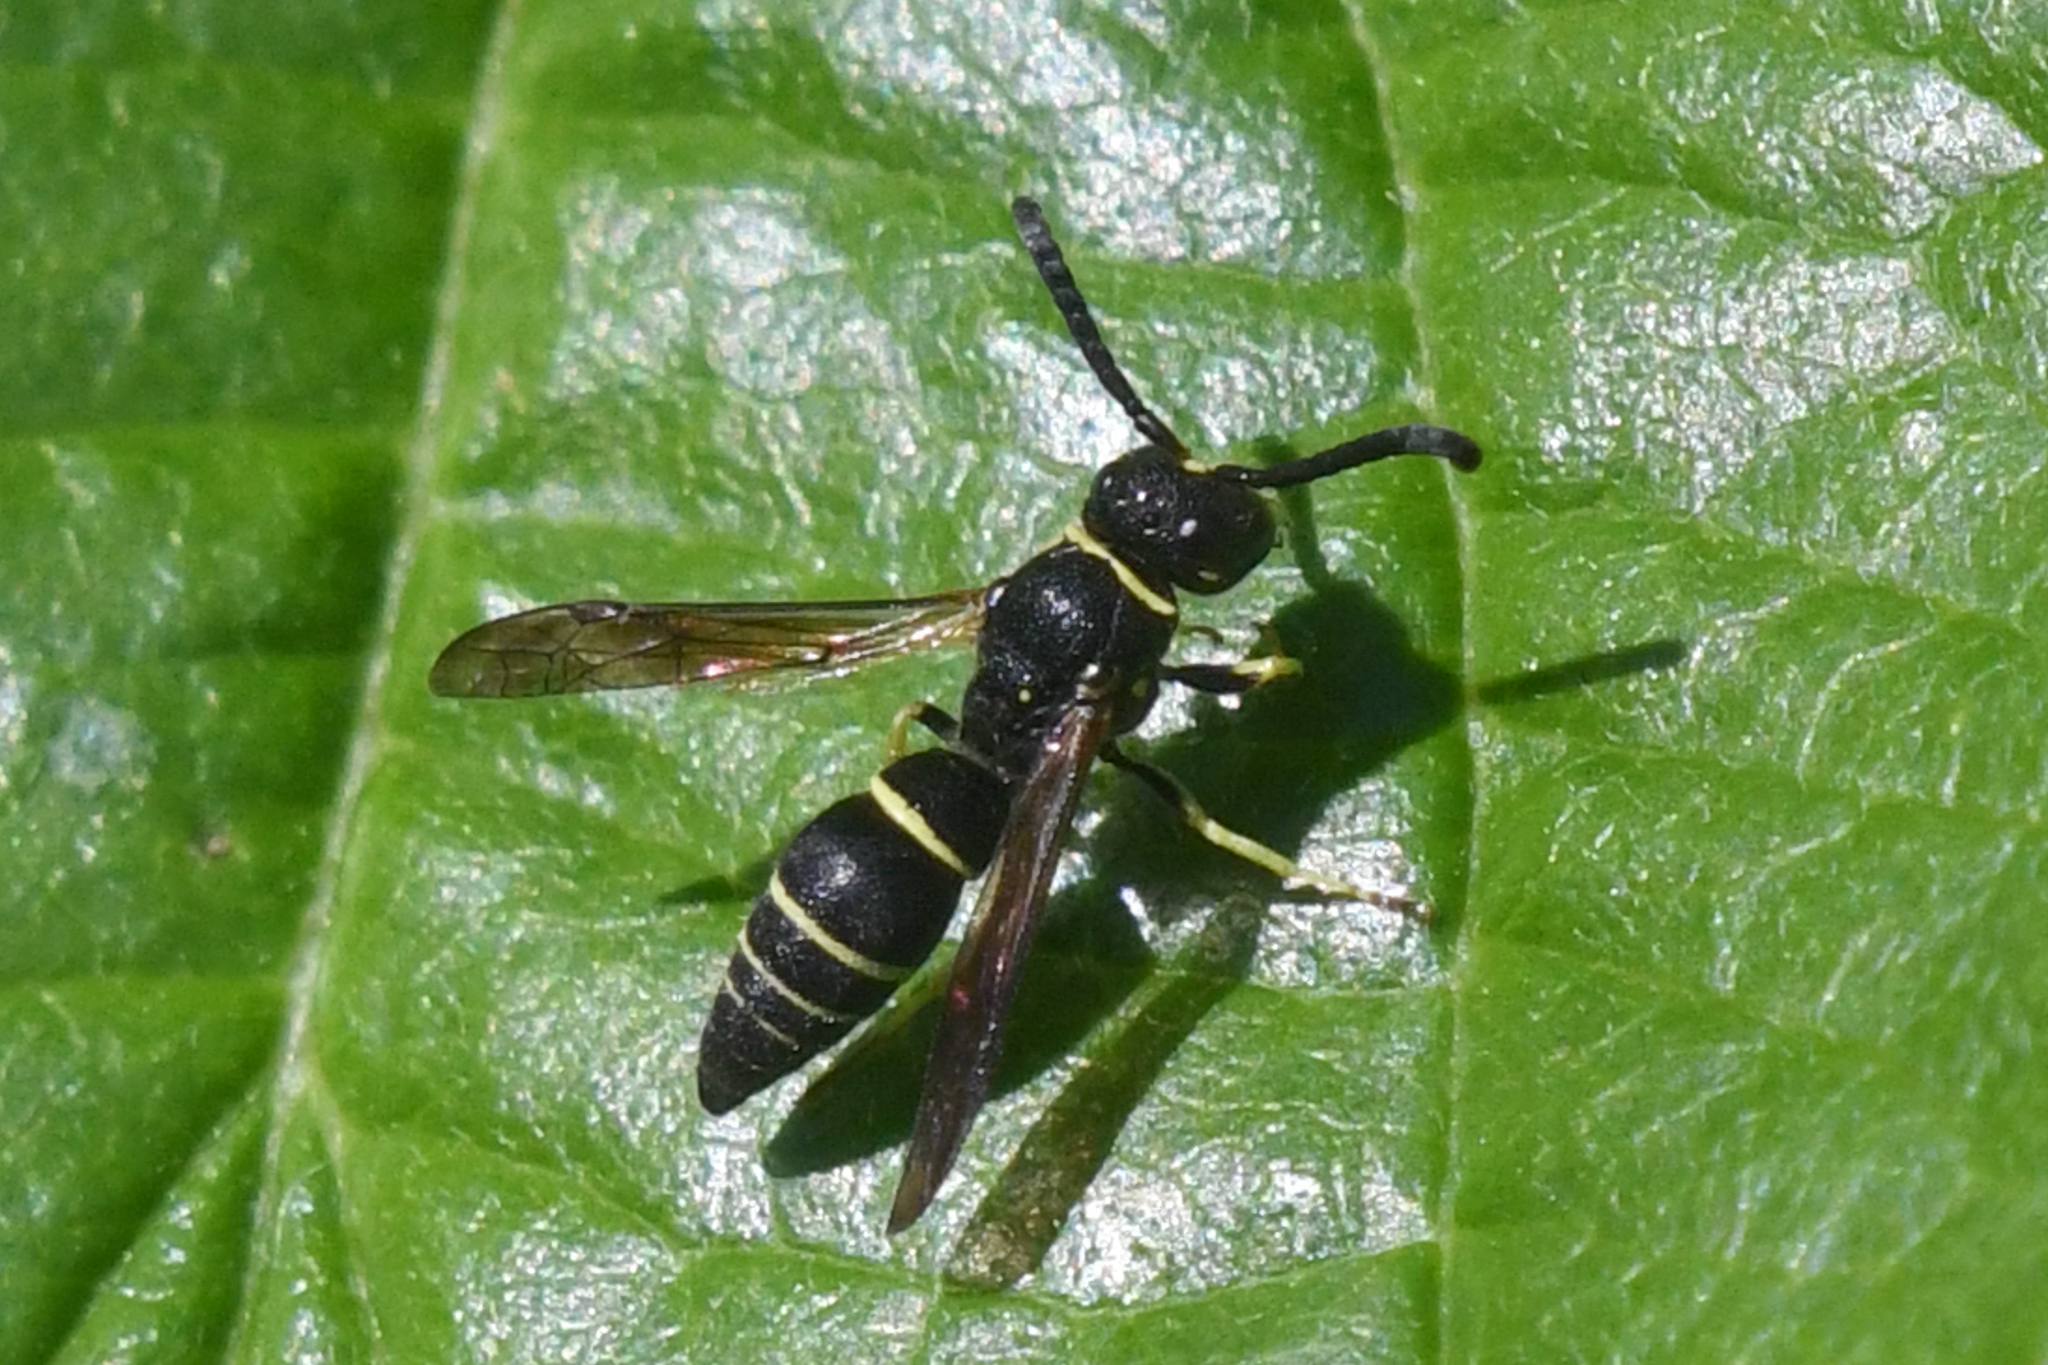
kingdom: Animalia
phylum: Arthropoda
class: Insecta
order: Hymenoptera
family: Vespidae
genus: Ancistrocerus
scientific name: Ancistrocerus albolacteus
